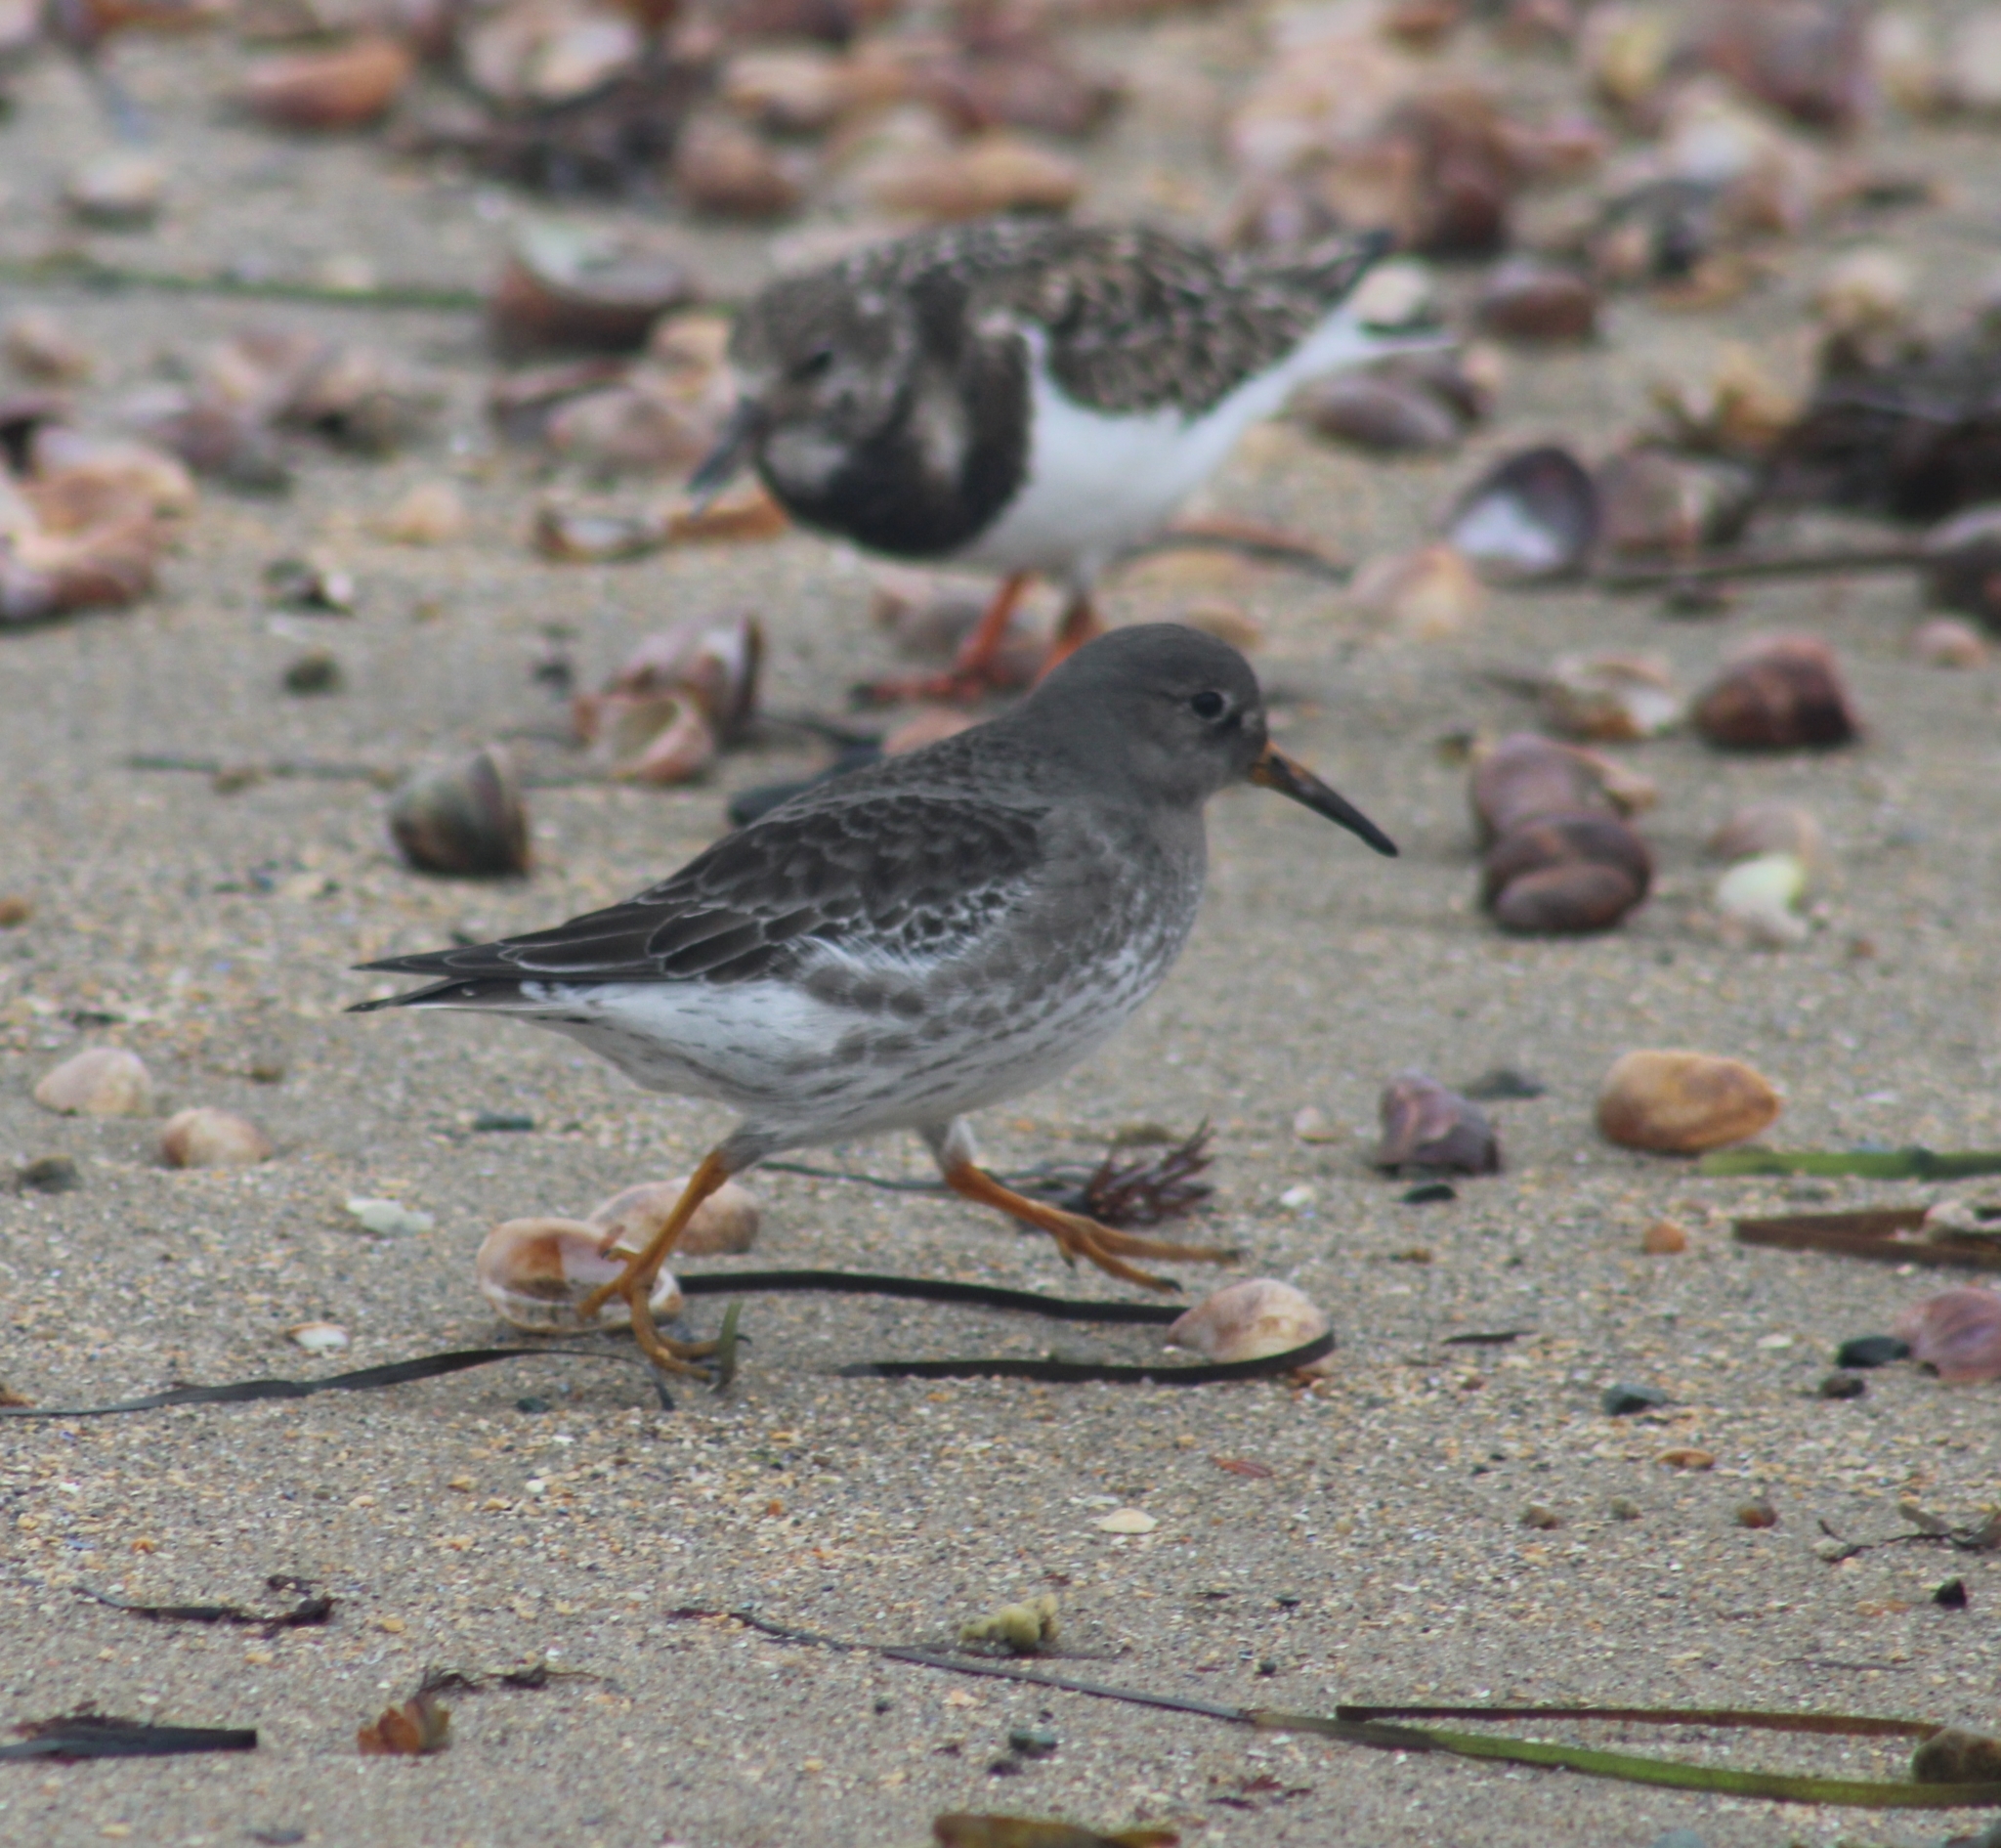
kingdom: Animalia
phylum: Chordata
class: Aves
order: Charadriiformes
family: Scolopacidae
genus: Calidris
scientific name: Calidris maritima
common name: Purple sandpiper
